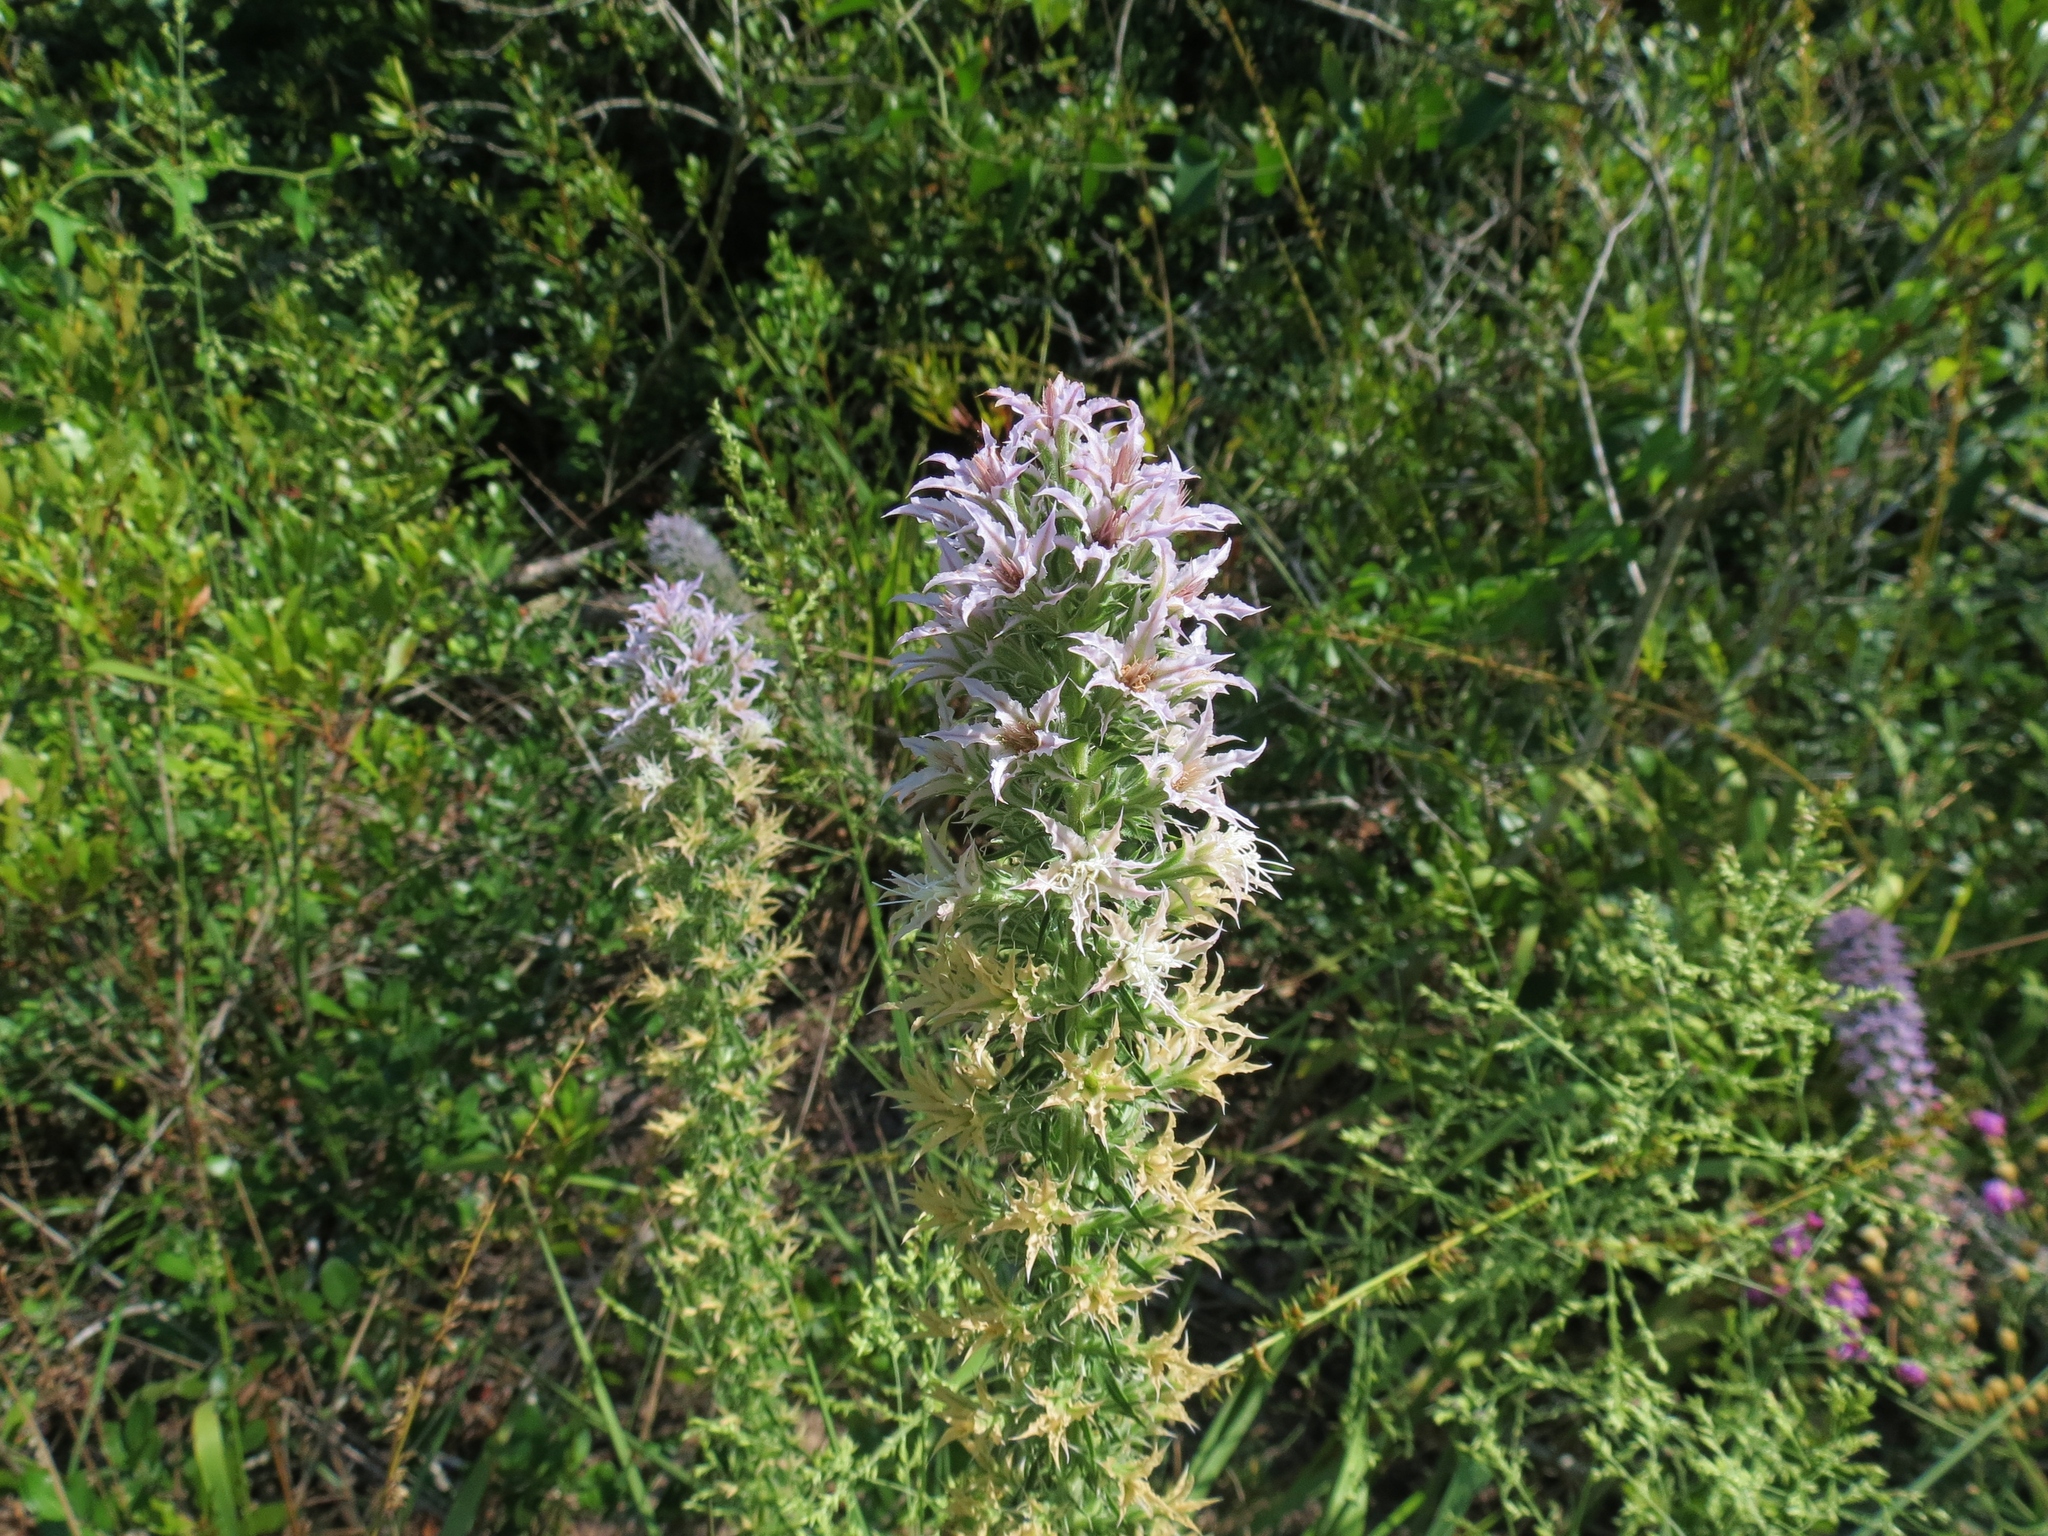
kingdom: Plantae
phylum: Tracheophyta
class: Magnoliopsida
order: Asterales
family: Asteraceae
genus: Liatris
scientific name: Liatris hesperelegans
